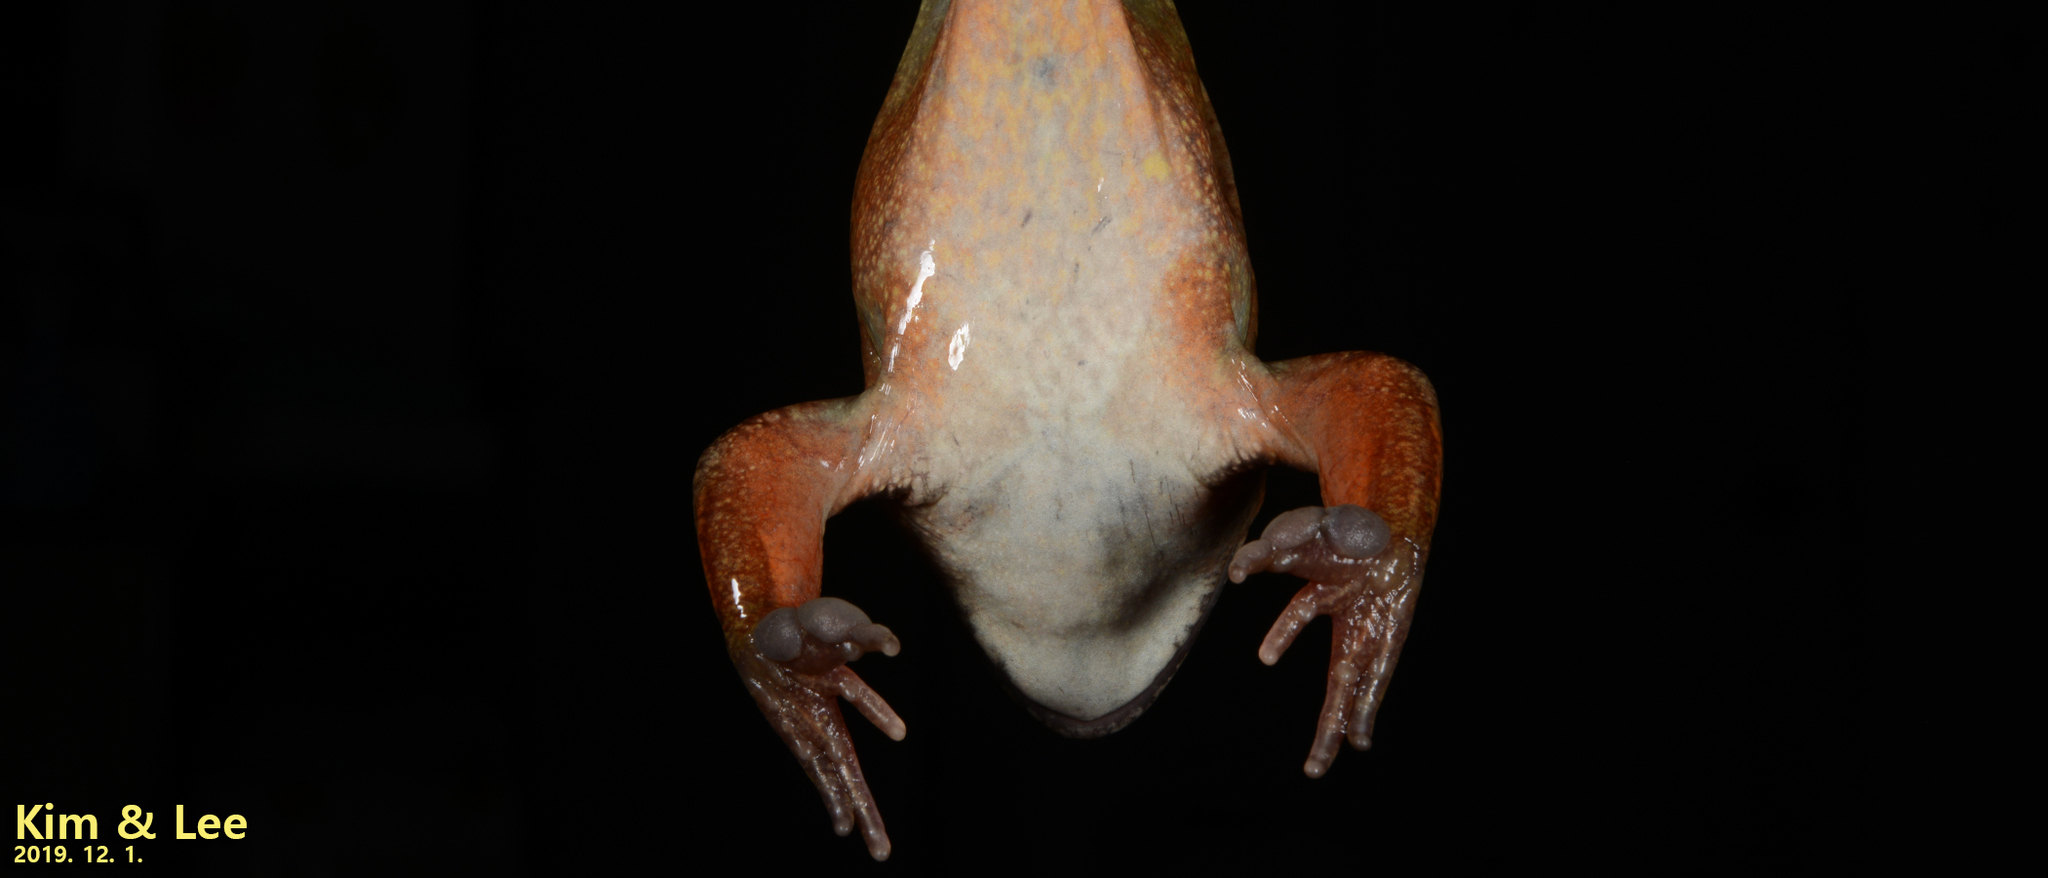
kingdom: Animalia
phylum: Chordata
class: Amphibia
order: Anura
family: Ranidae
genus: Rana
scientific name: Rana dybowskii
